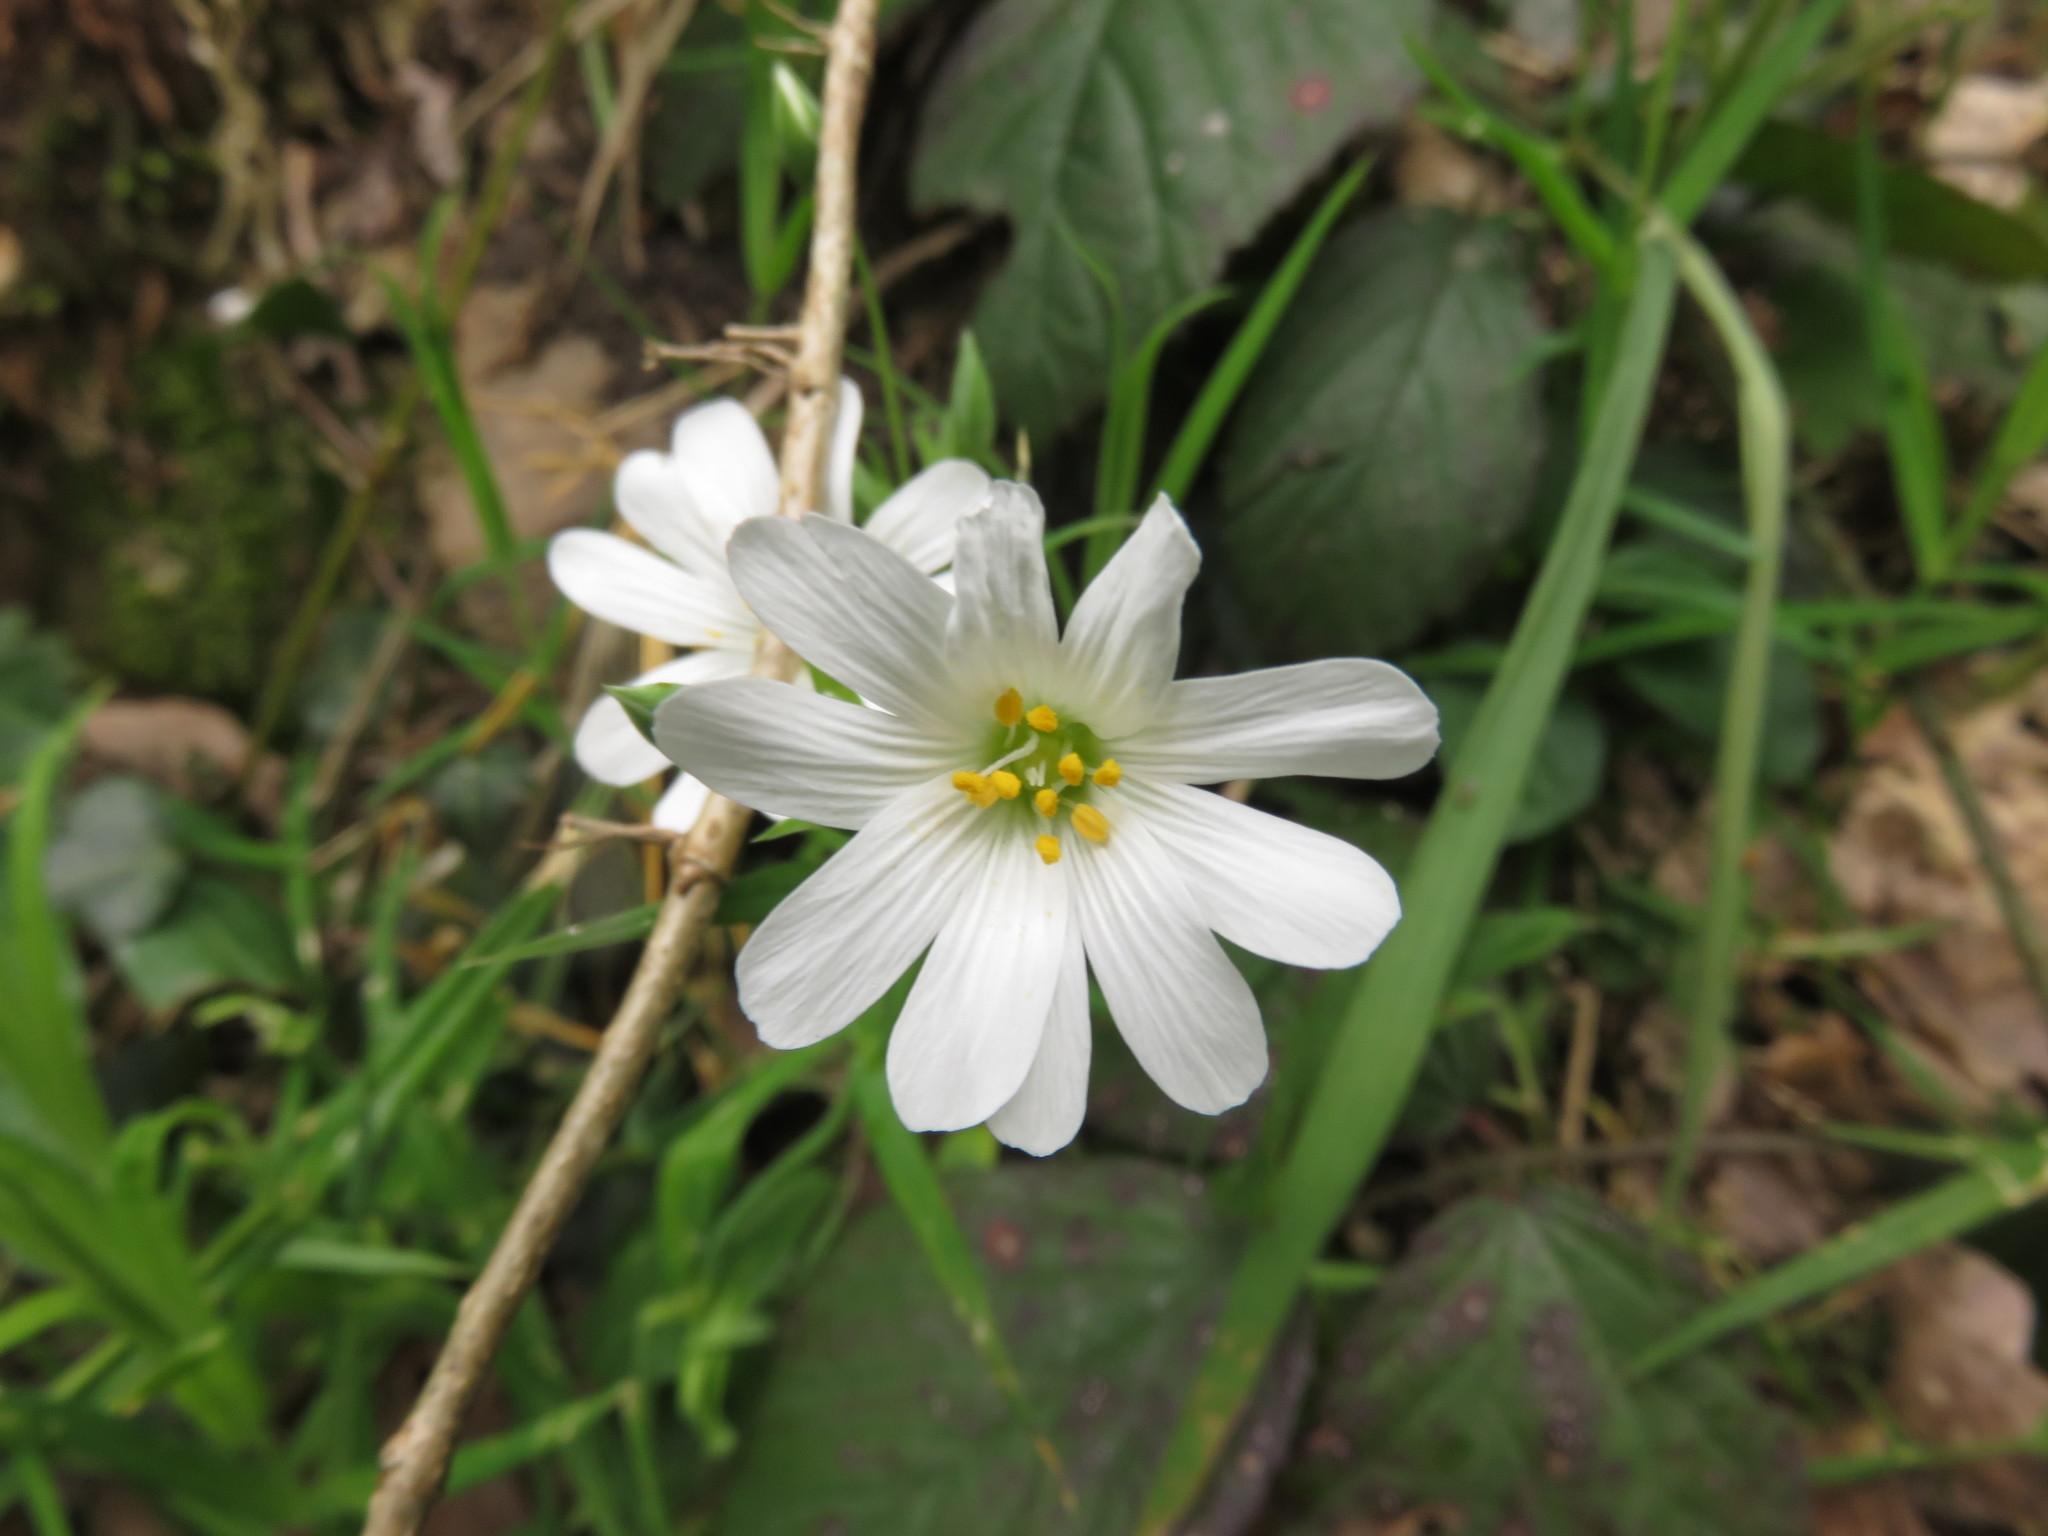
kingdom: Plantae
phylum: Tracheophyta
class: Magnoliopsida
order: Caryophyllales
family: Caryophyllaceae
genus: Rabelera
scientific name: Rabelera holostea
